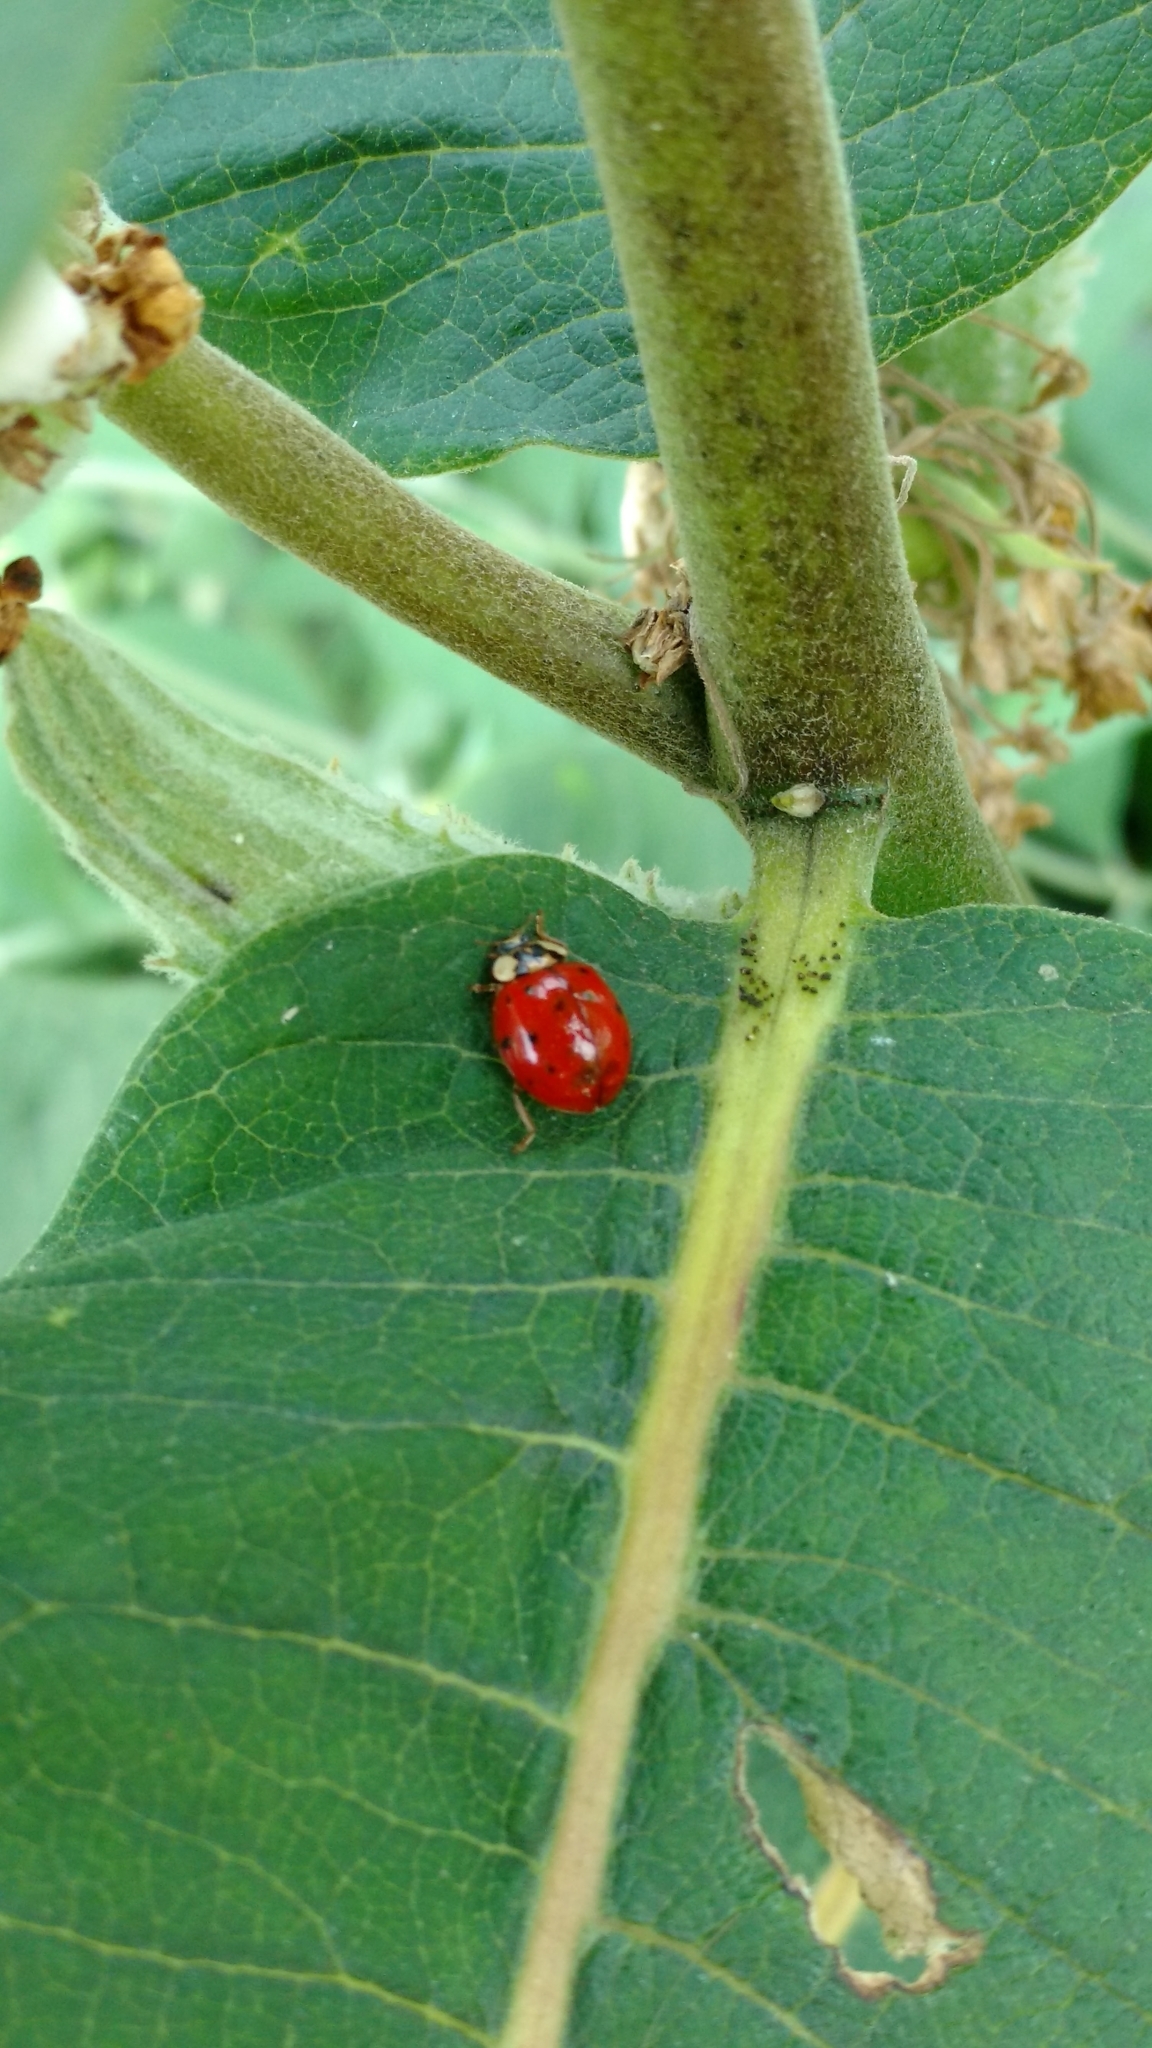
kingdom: Animalia
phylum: Arthropoda
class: Insecta
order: Coleoptera
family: Coccinellidae
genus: Harmonia
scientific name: Harmonia axyridis
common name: Harlequin ladybird
